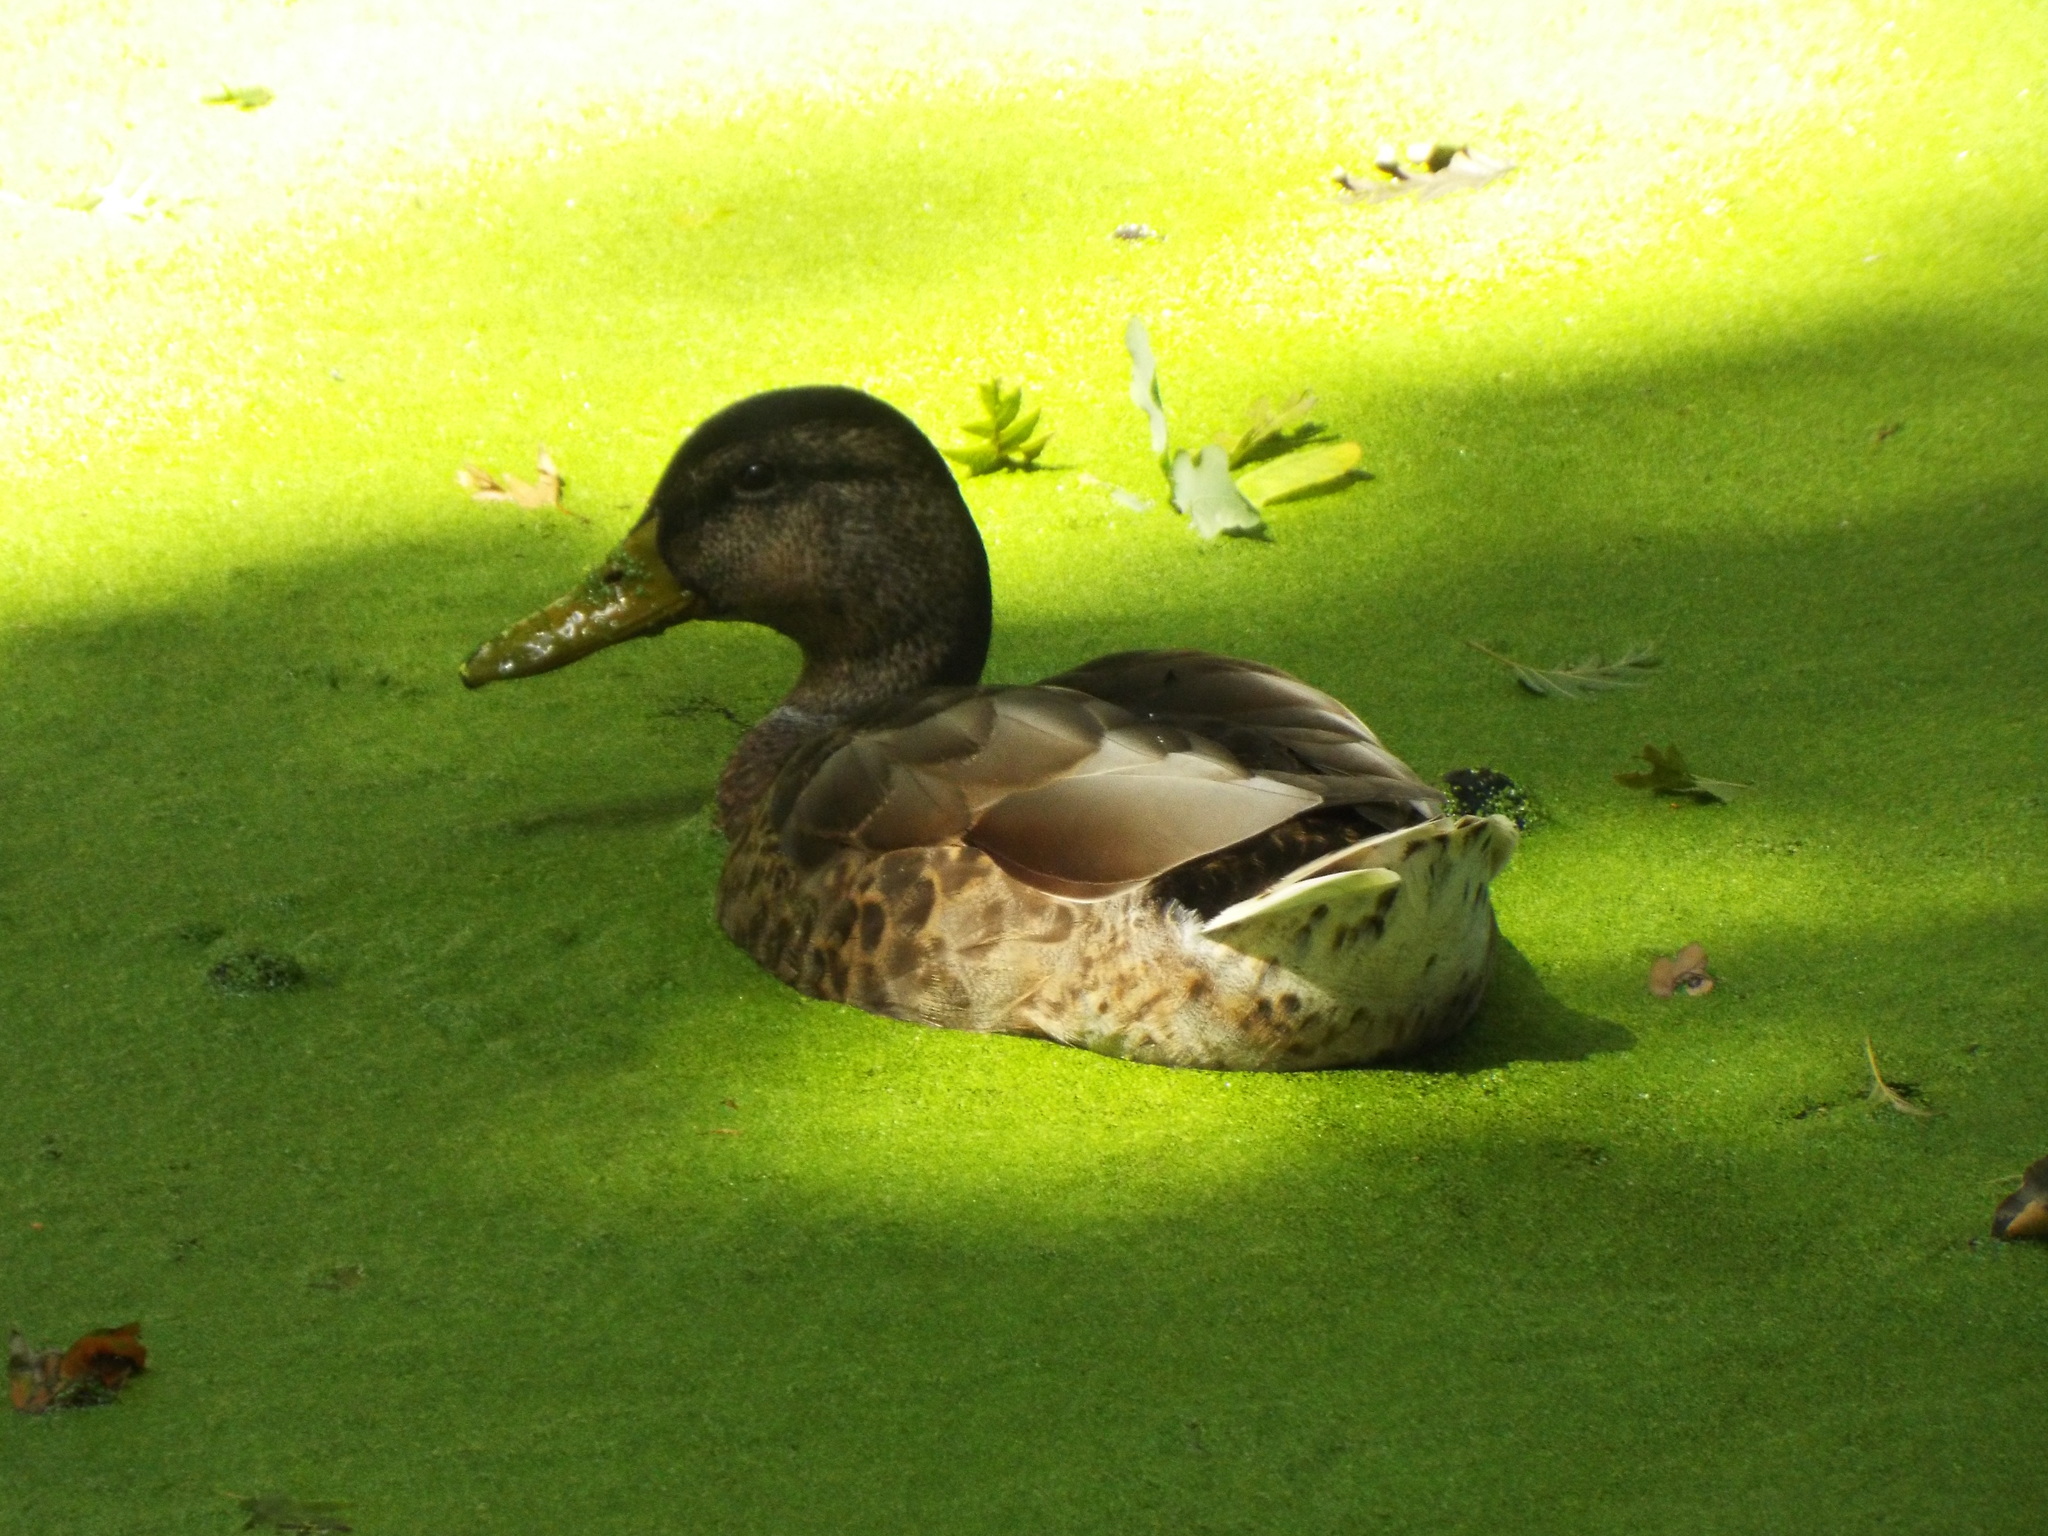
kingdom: Animalia
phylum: Chordata
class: Aves
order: Anseriformes
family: Anatidae
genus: Anas
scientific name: Anas platyrhynchos
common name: Mallard
